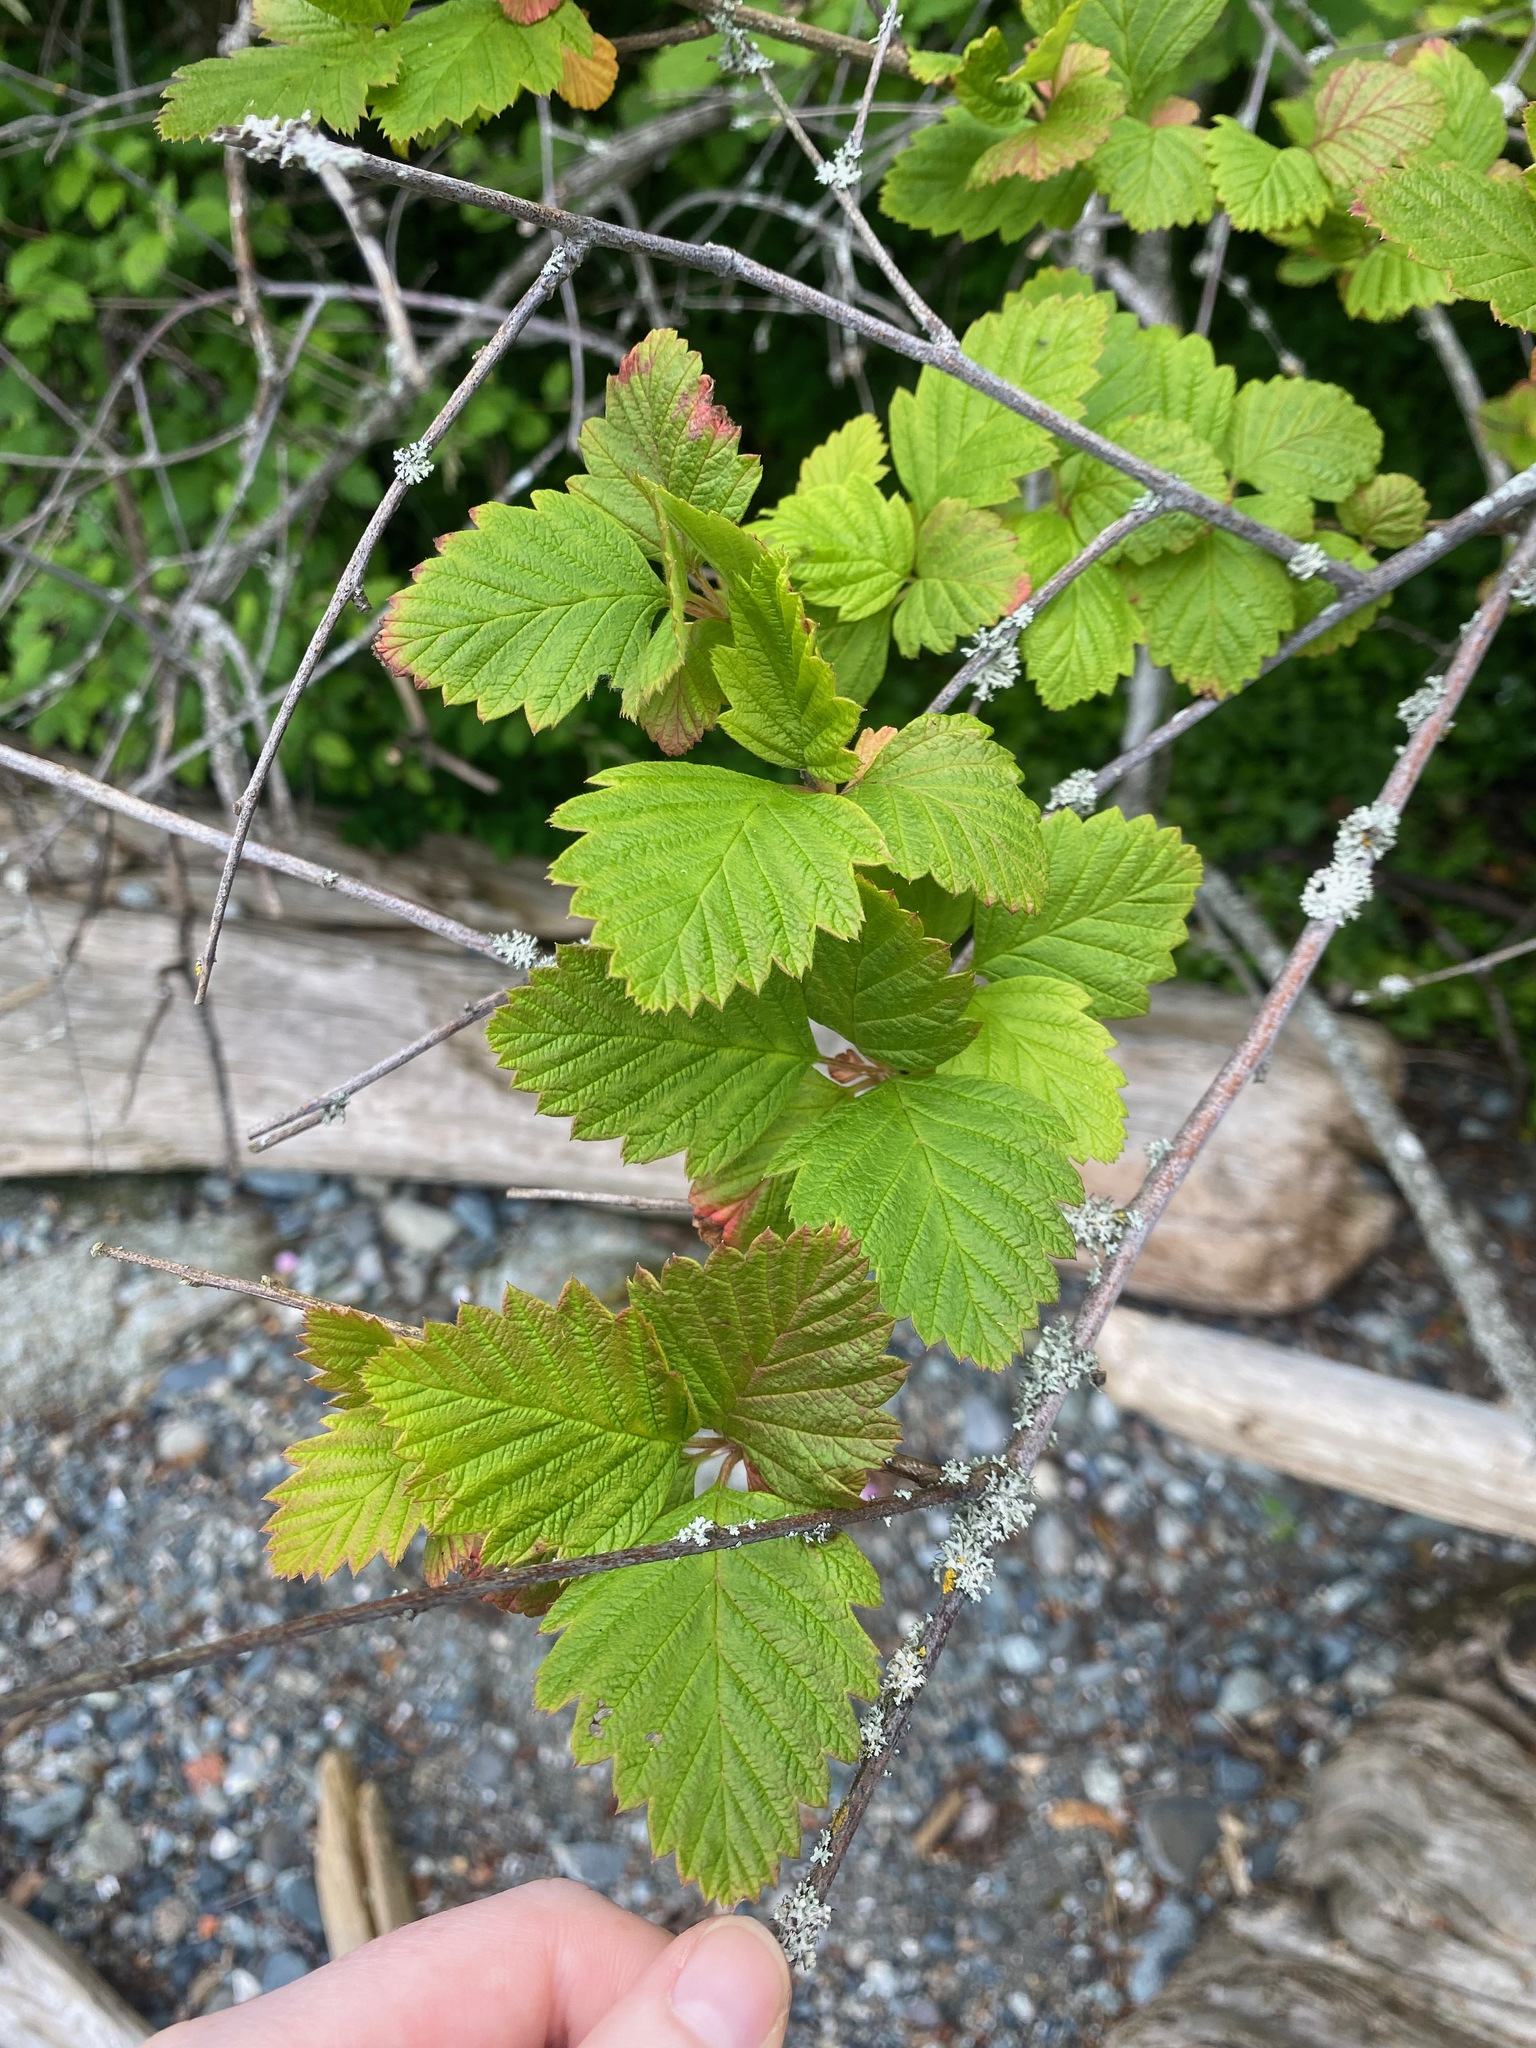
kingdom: Plantae
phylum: Tracheophyta
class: Magnoliopsida
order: Rosales
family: Rosaceae
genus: Holodiscus
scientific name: Holodiscus discolor
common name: Oceanspray
